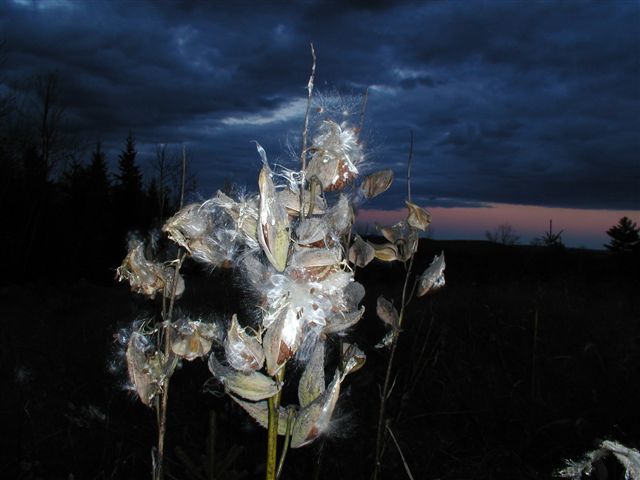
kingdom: Plantae
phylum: Tracheophyta
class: Magnoliopsida
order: Gentianales
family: Apocynaceae
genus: Asclepias
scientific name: Asclepias syriaca
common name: Common milkweed
